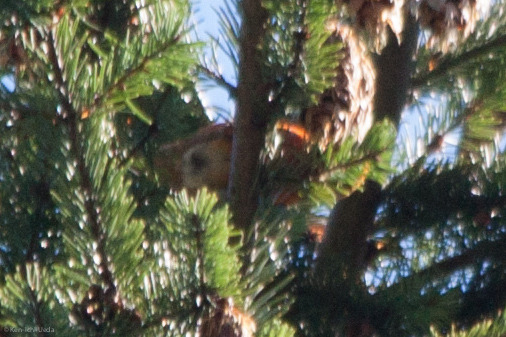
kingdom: Animalia
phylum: Chordata
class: Aves
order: Passeriformes
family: Fringillidae
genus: Loxia
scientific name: Loxia curvirostra
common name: Red crossbill
